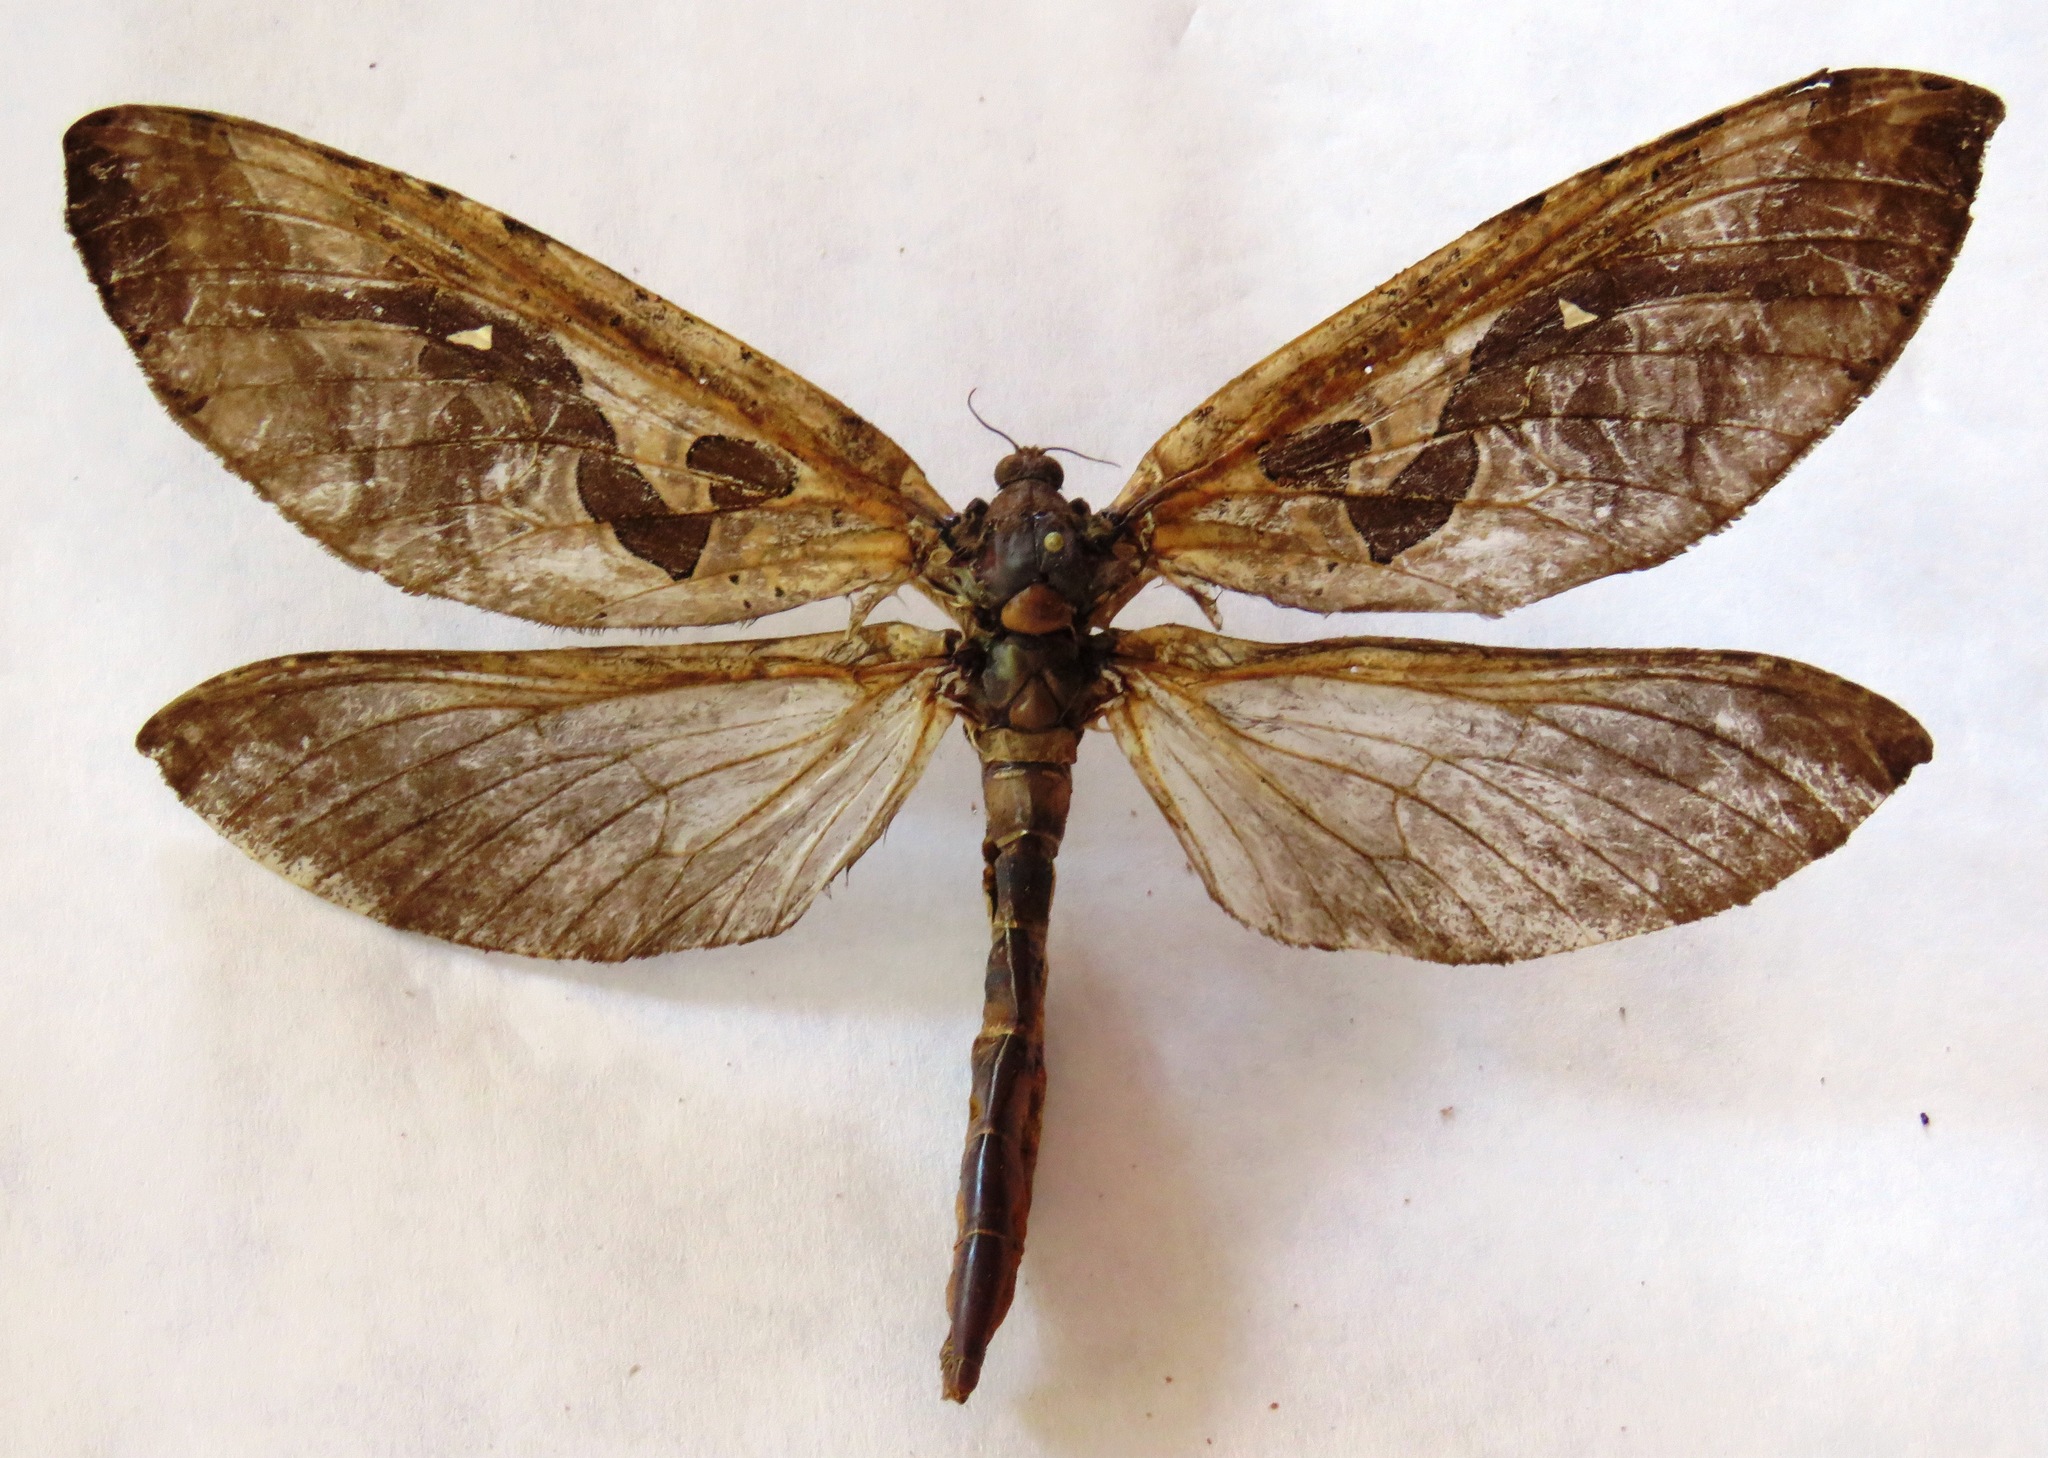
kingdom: Animalia
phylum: Arthropoda
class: Insecta
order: Lepidoptera
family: Hepialidae
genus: Phassus
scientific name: Phassus huebneri
